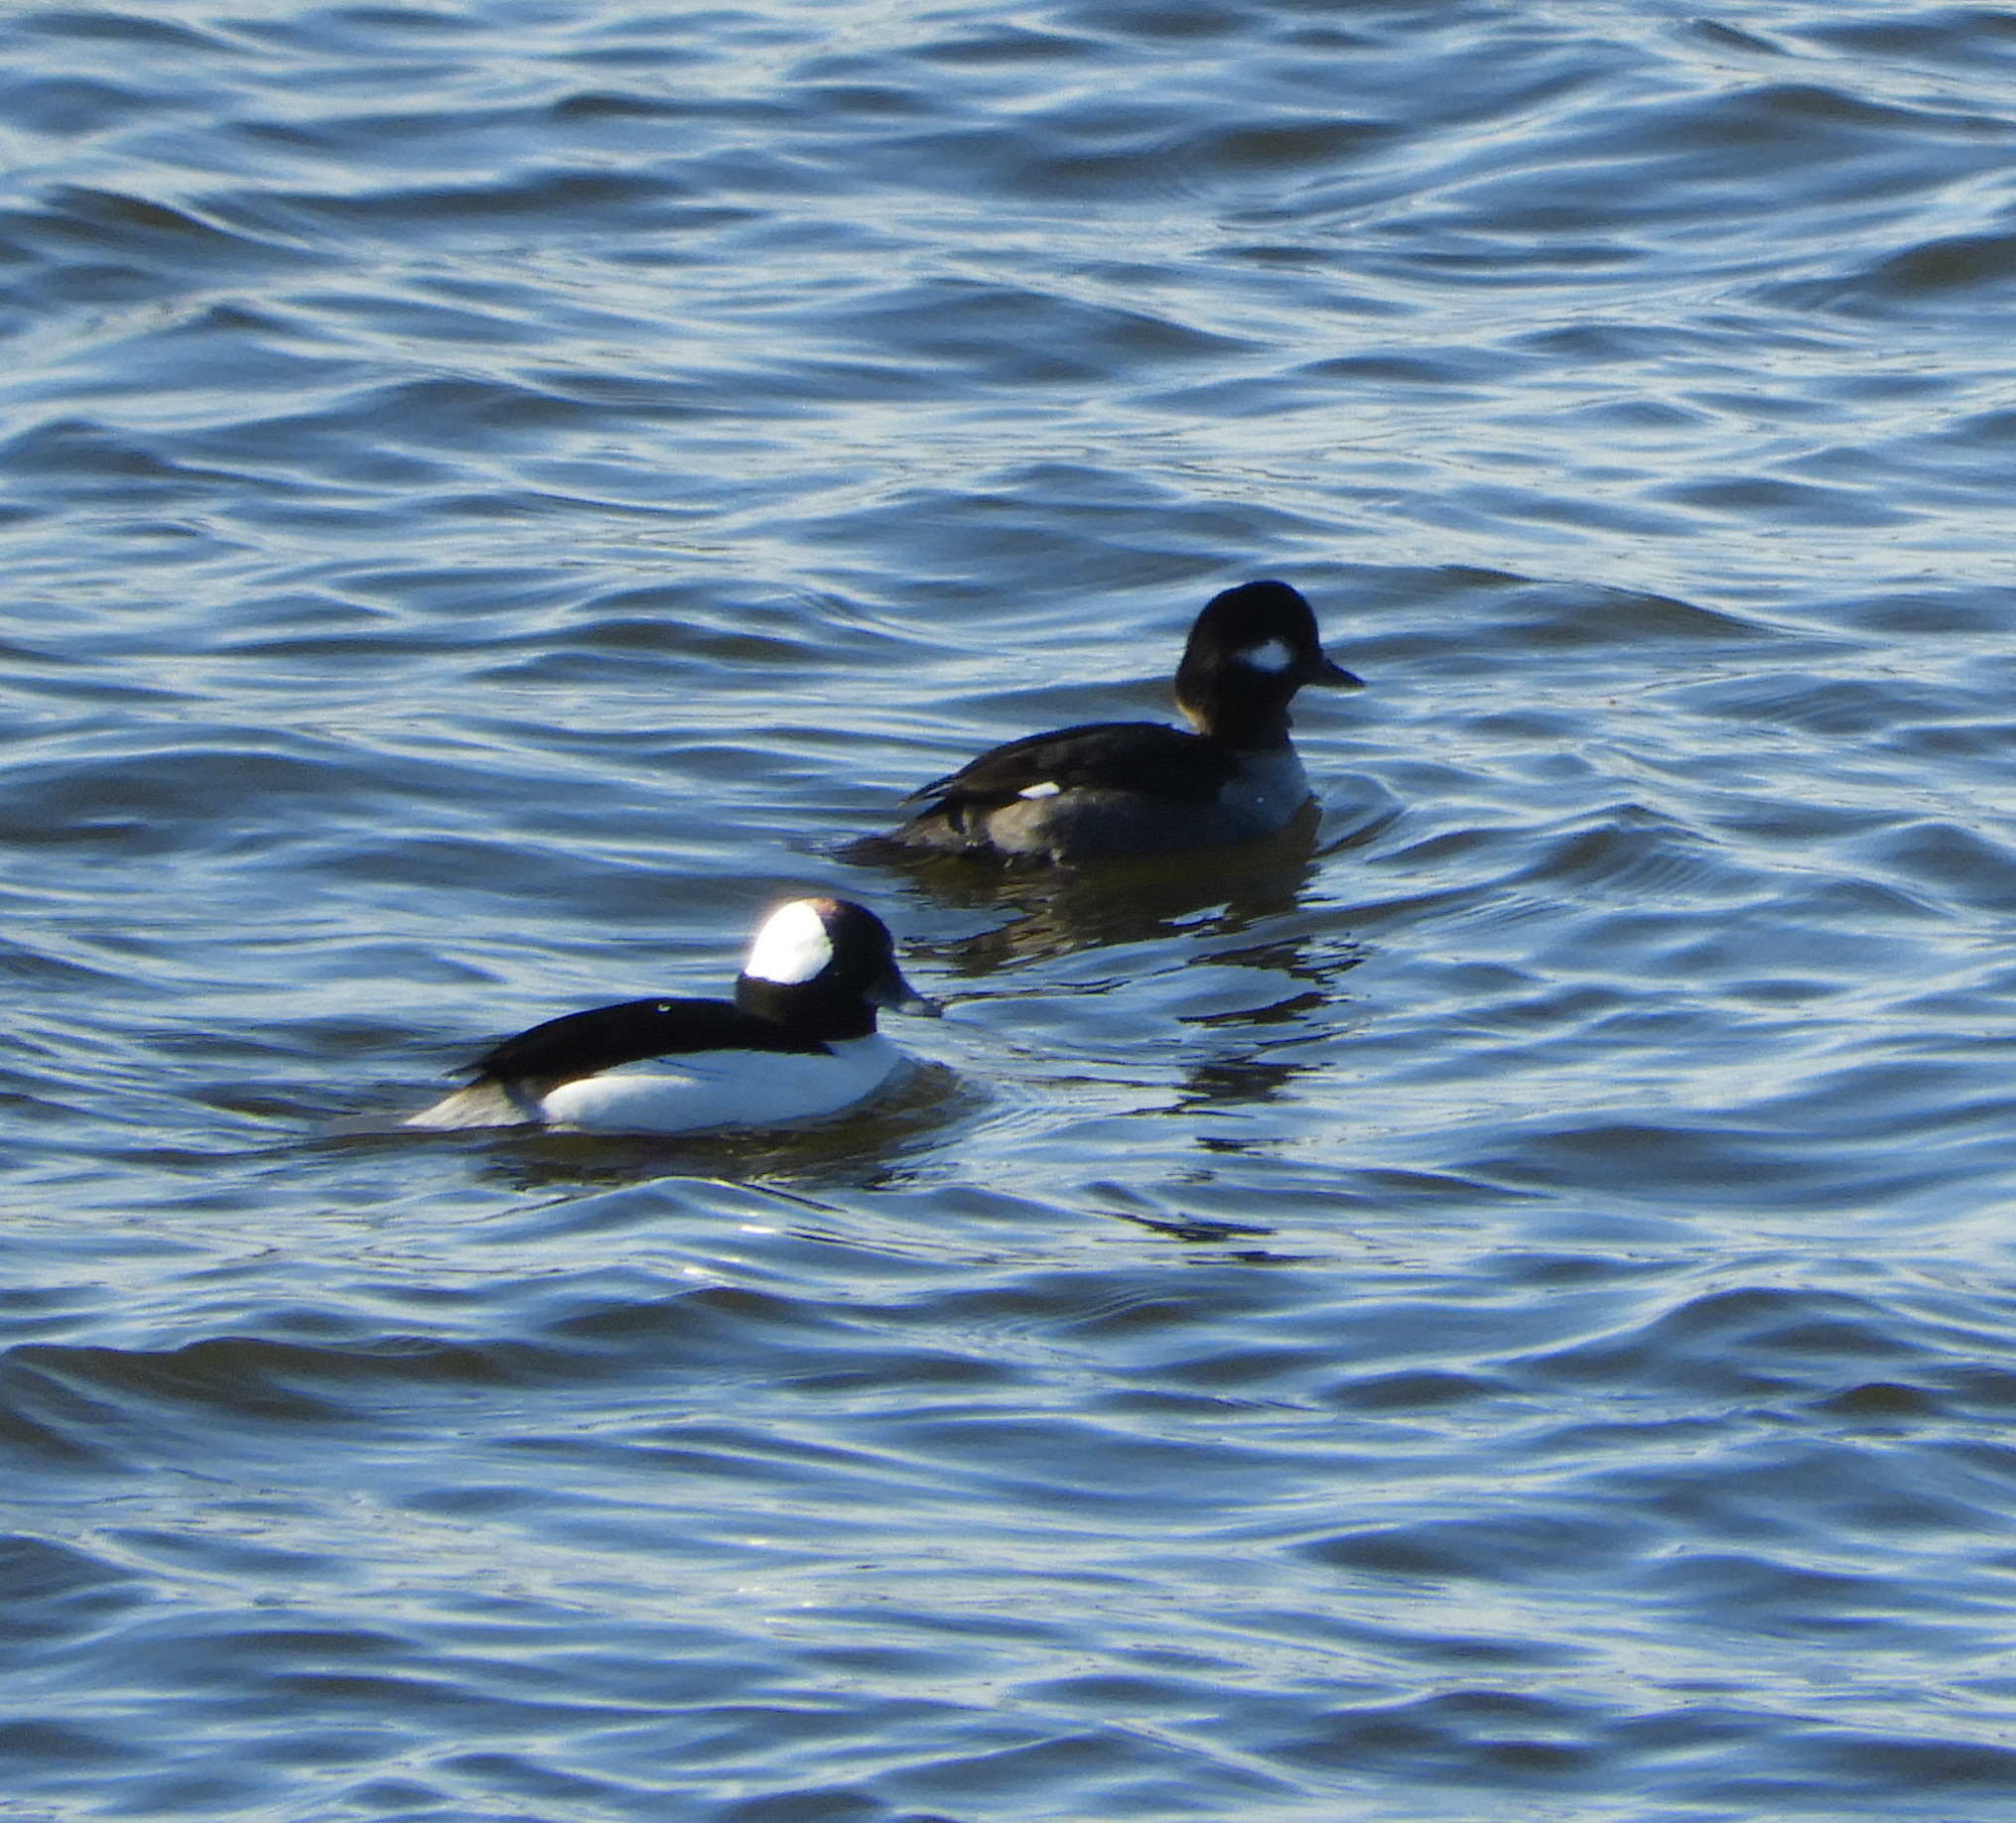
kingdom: Animalia
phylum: Chordata
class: Aves
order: Anseriformes
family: Anatidae
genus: Bucephala
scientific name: Bucephala albeola
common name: Bufflehead
